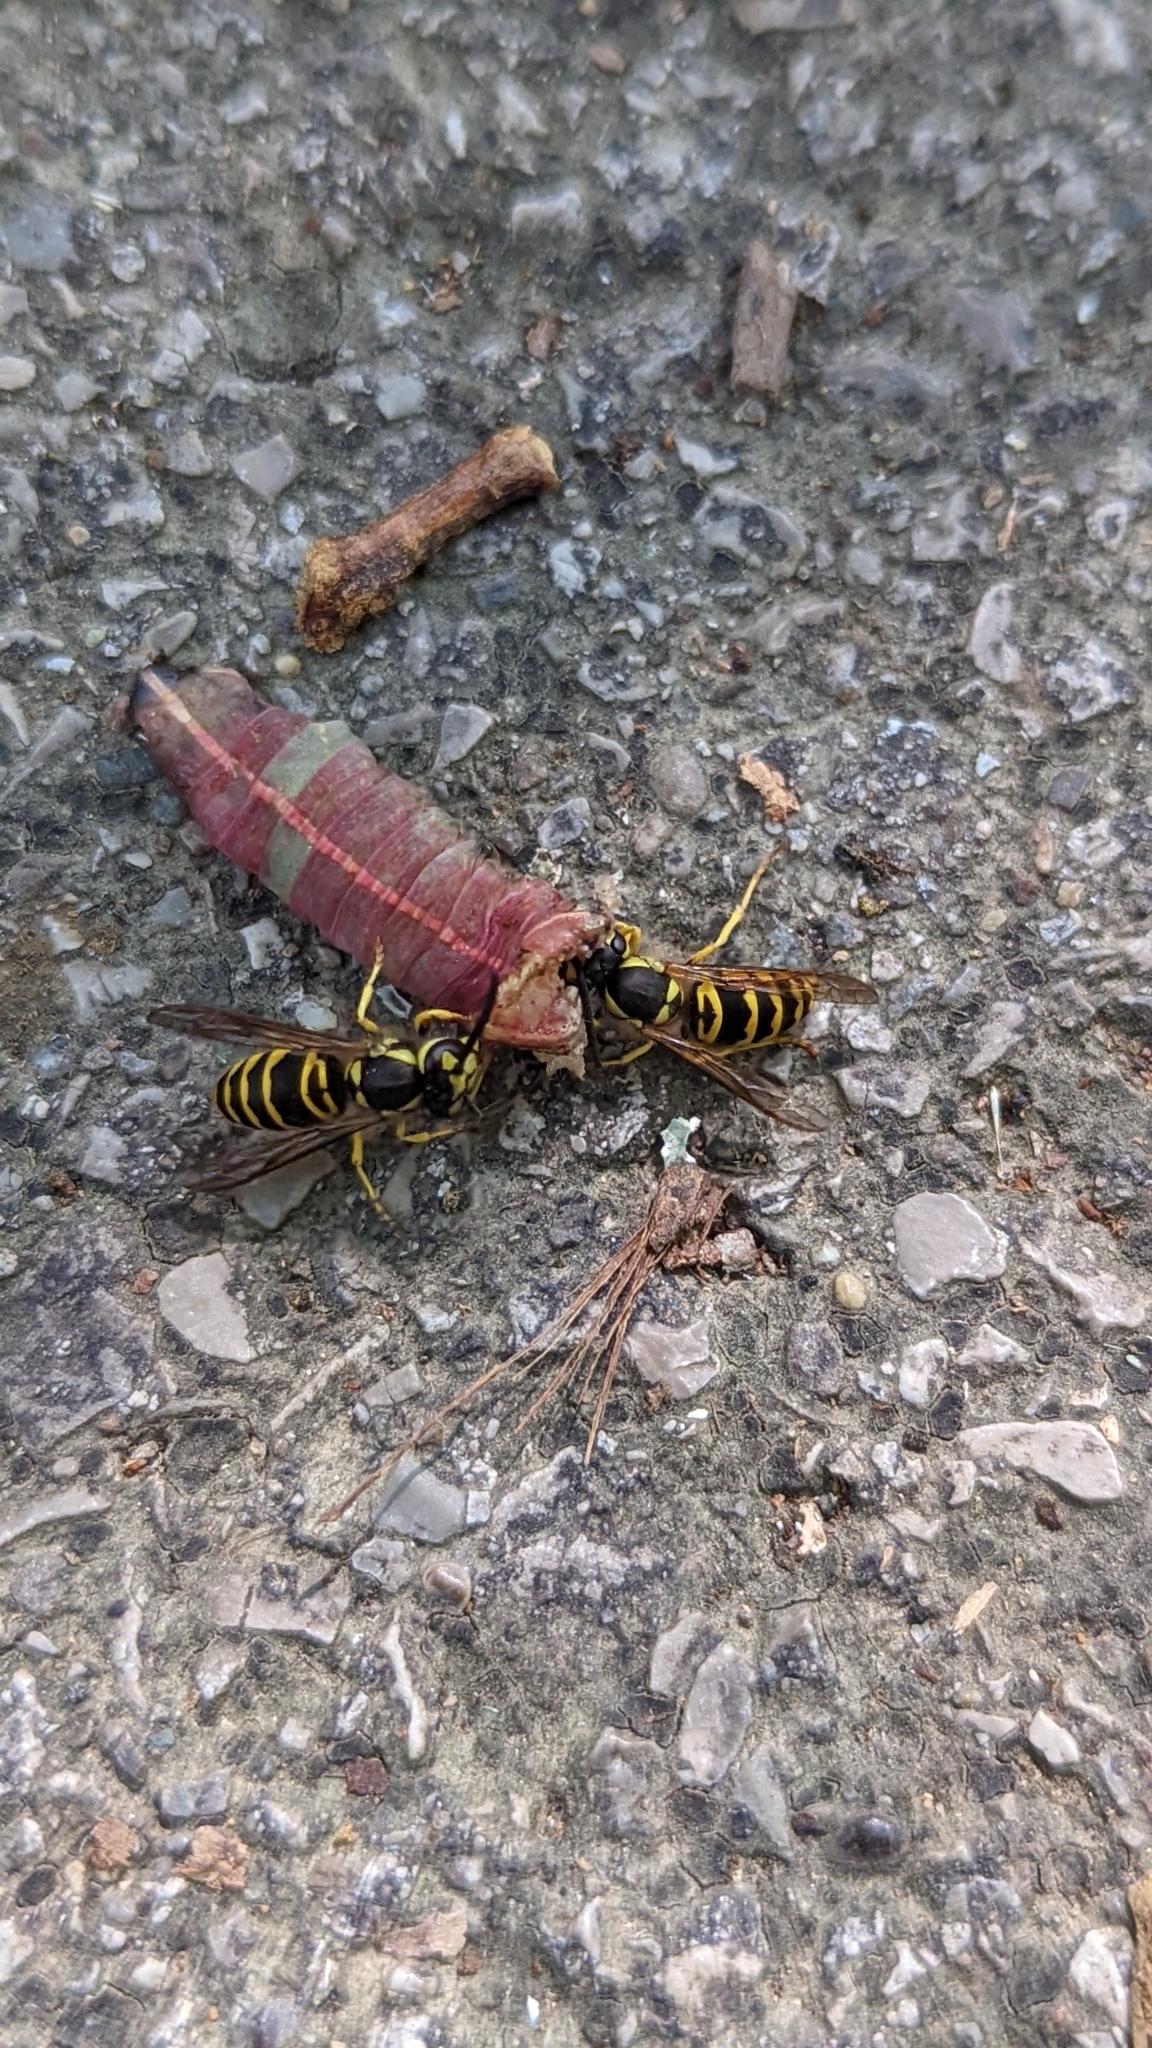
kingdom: Animalia
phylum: Arthropoda
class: Insecta
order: Hymenoptera
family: Vespidae
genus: Vespula
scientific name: Vespula maculifrons
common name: Eastern yellowjacket
